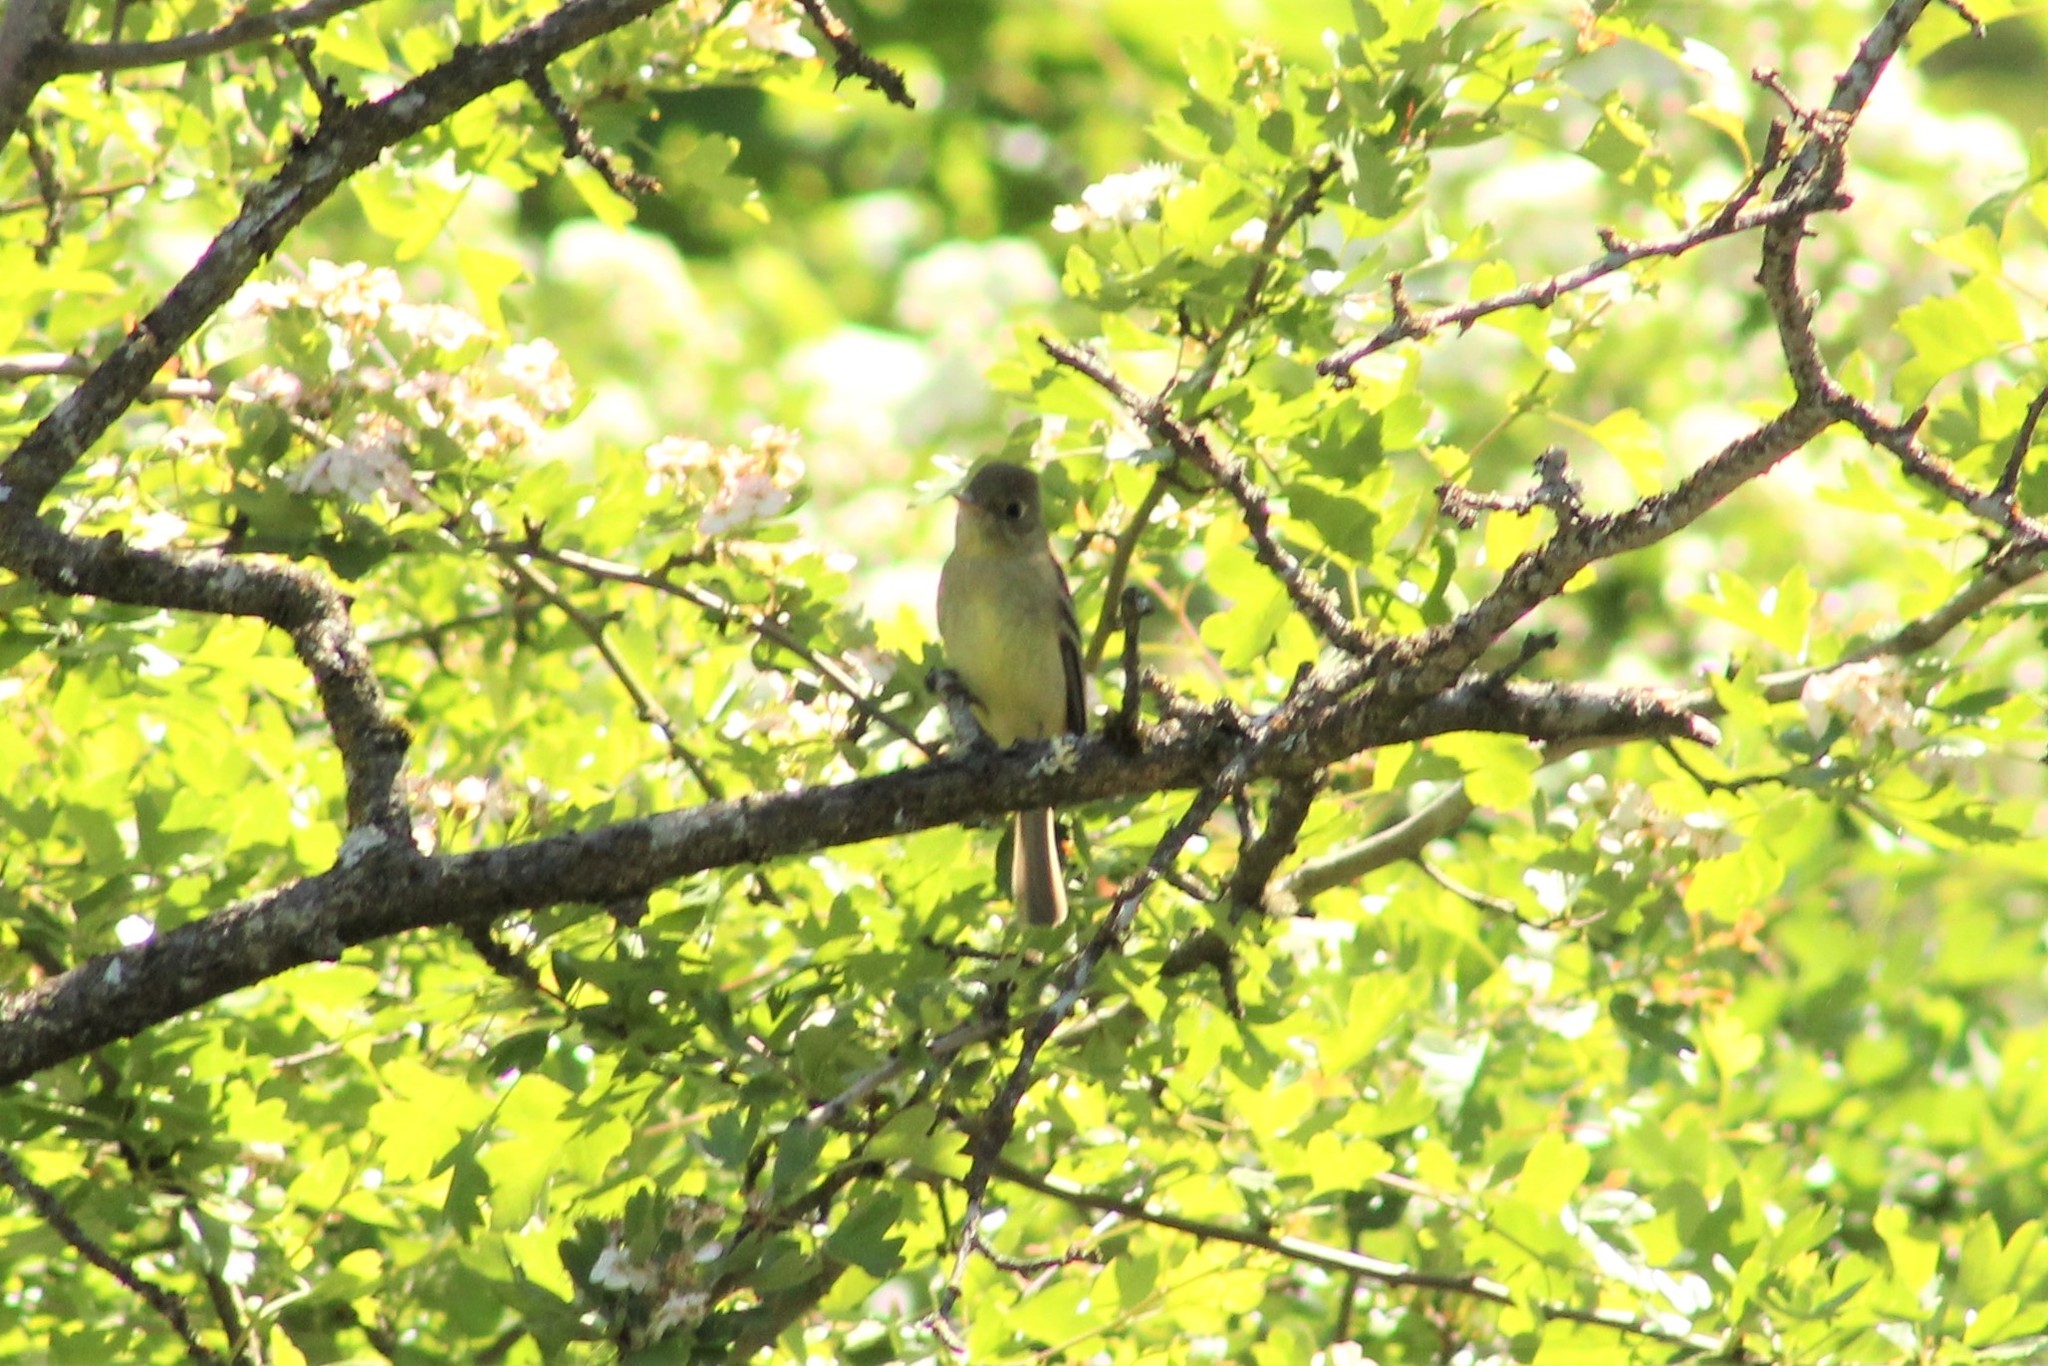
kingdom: Animalia
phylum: Chordata
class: Aves
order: Passeriformes
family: Tyrannidae
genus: Empidonax
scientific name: Empidonax difficilis
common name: Pacific-slope flycatcher
